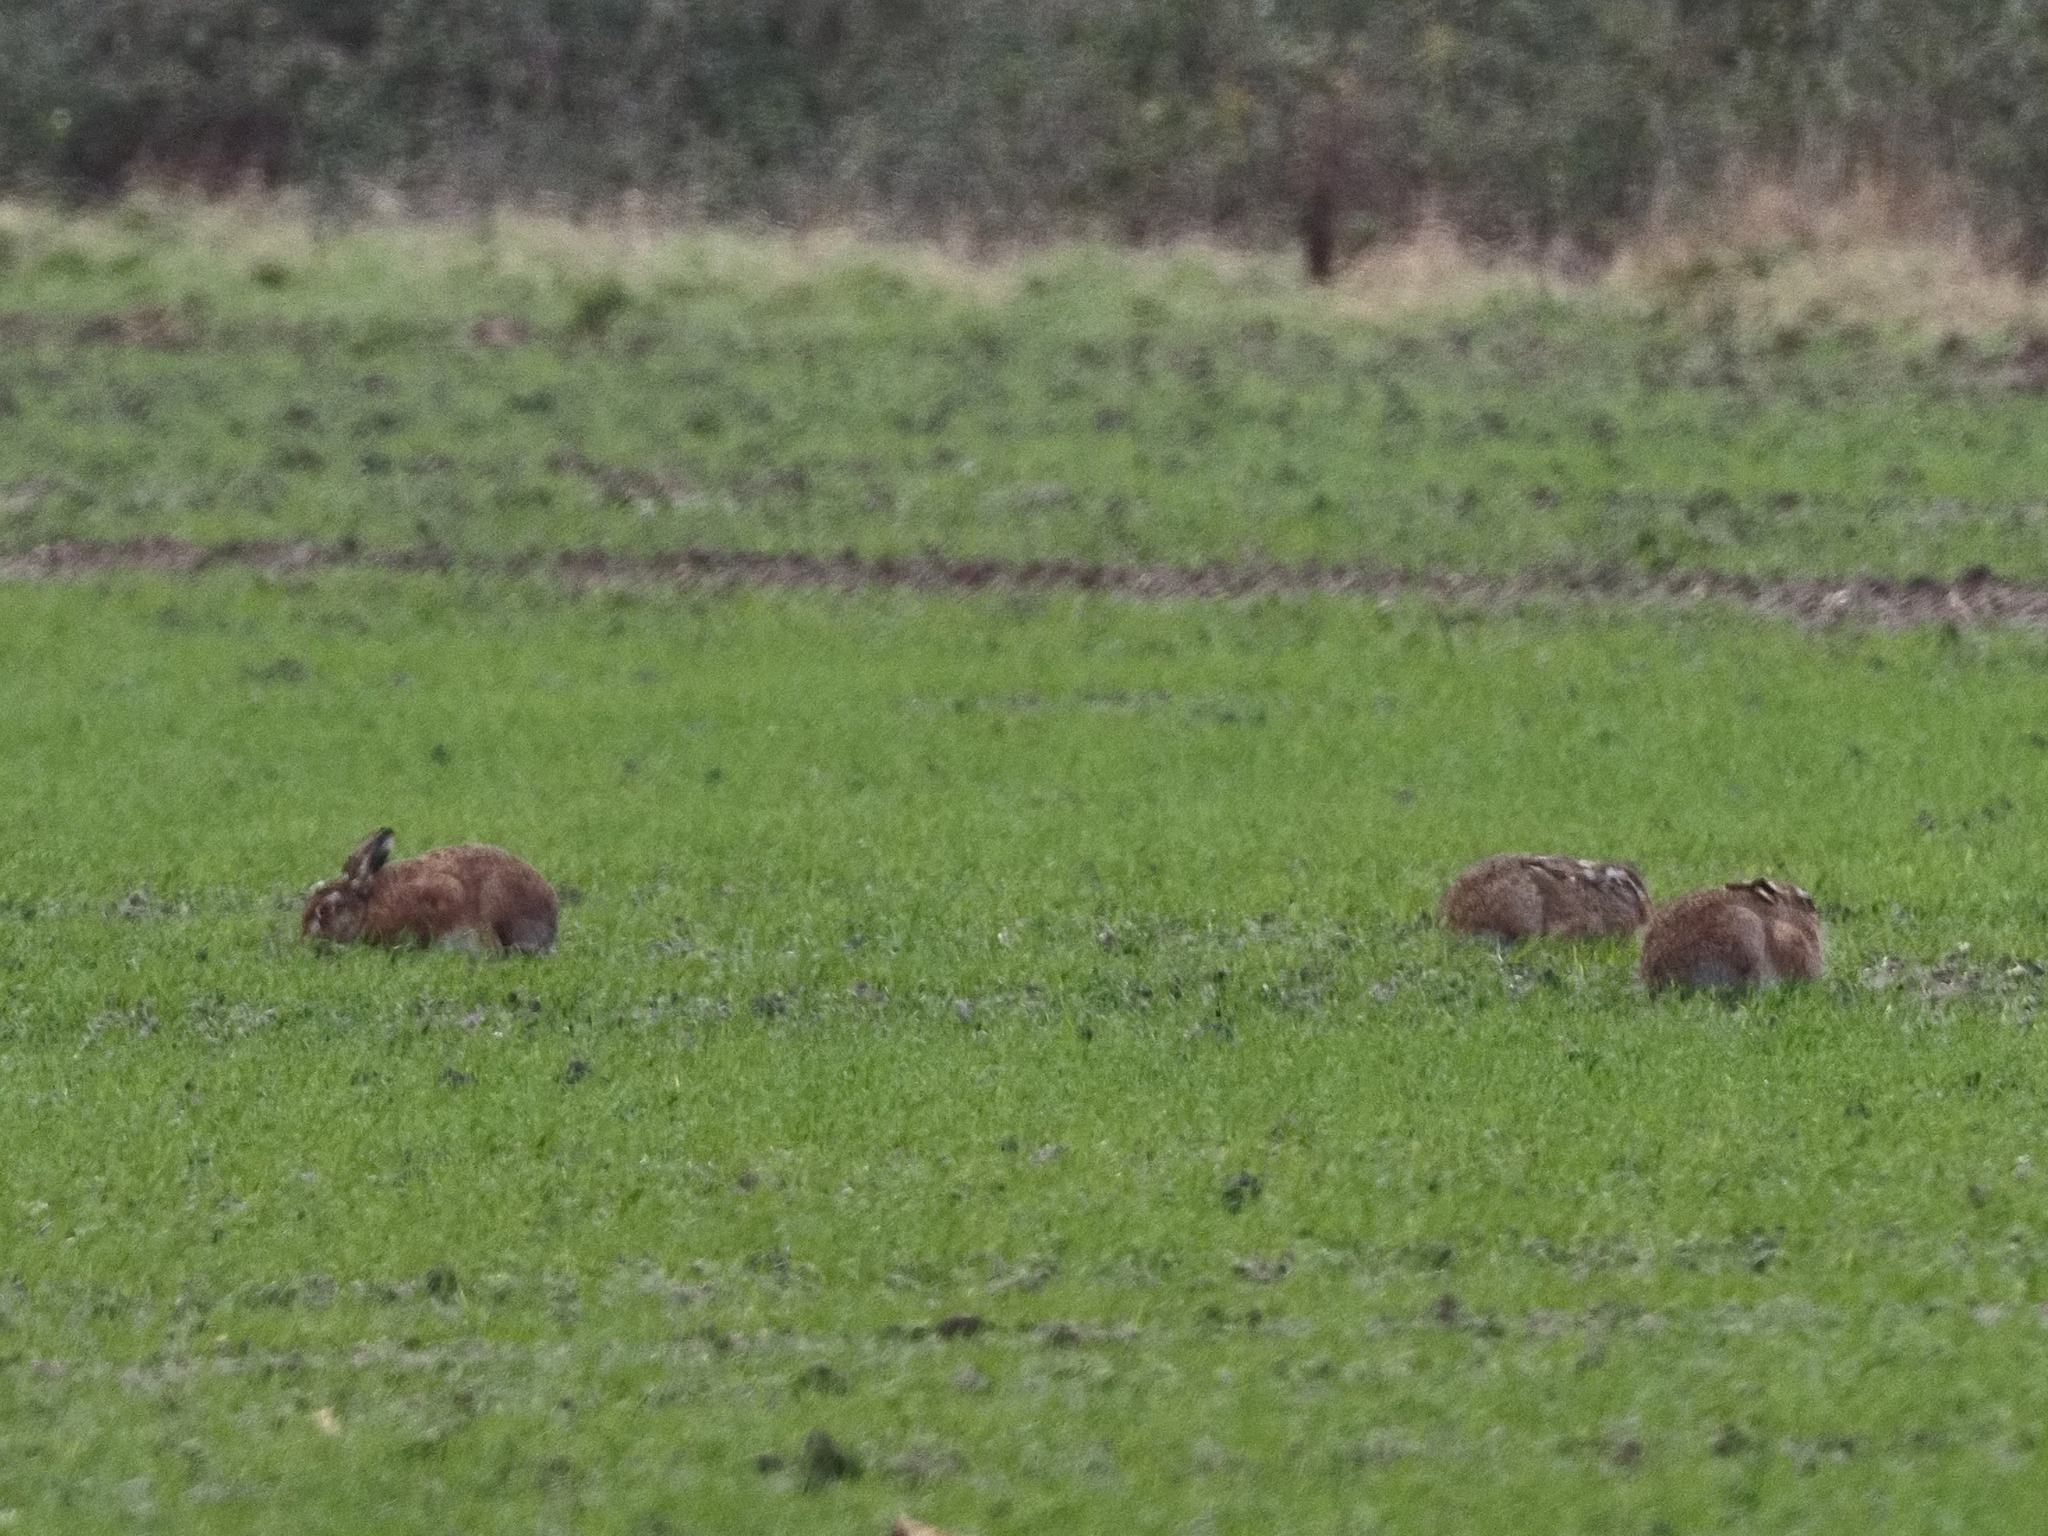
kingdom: Animalia
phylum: Chordata
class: Mammalia
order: Lagomorpha
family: Leporidae
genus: Lepus
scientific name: Lepus europaeus
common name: European hare
